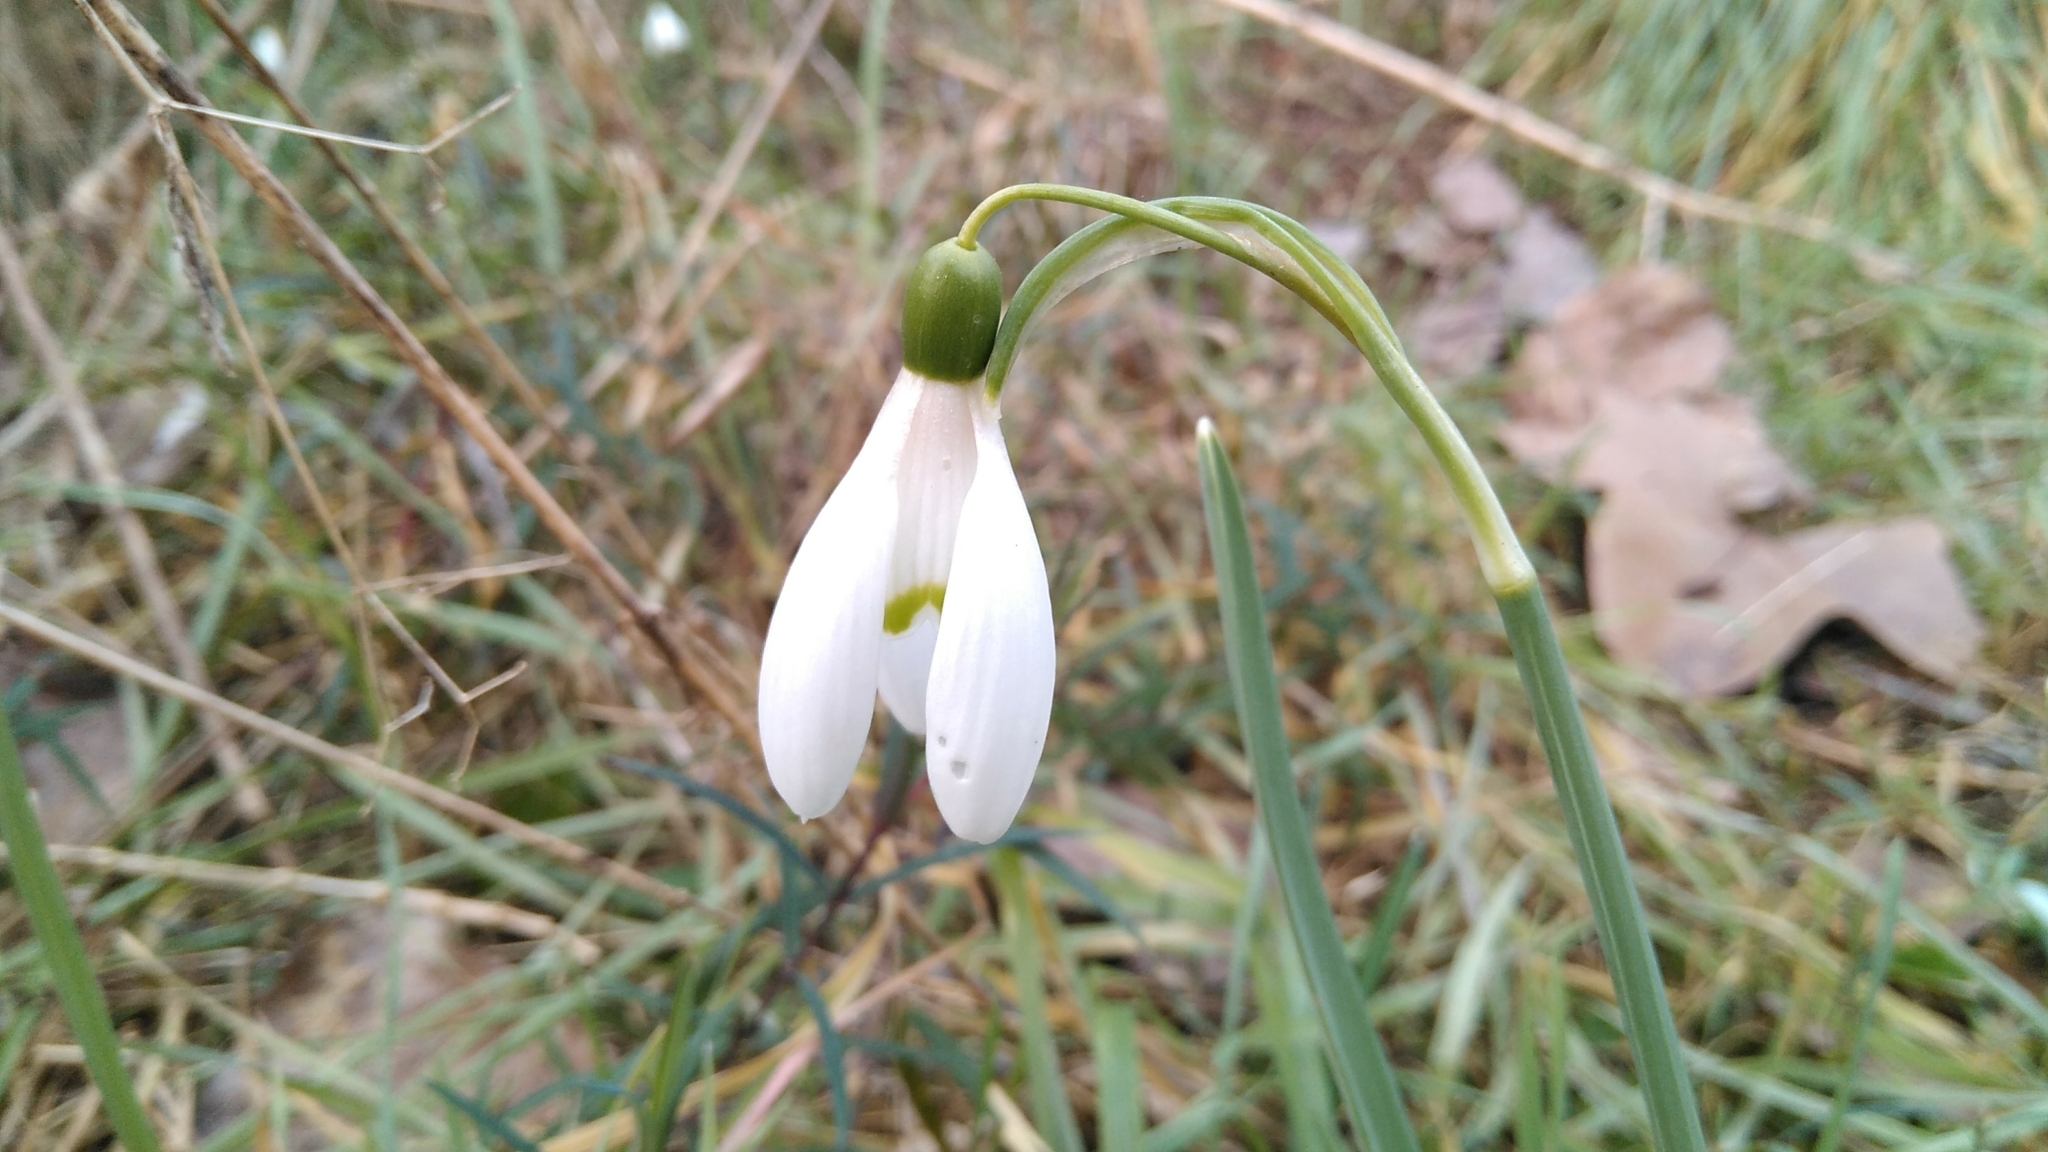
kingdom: Plantae
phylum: Tracheophyta
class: Liliopsida
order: Asparagales
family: Amaryllidaceae
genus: Galanthus
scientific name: Galanthus nivalis
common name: Snowdrop
